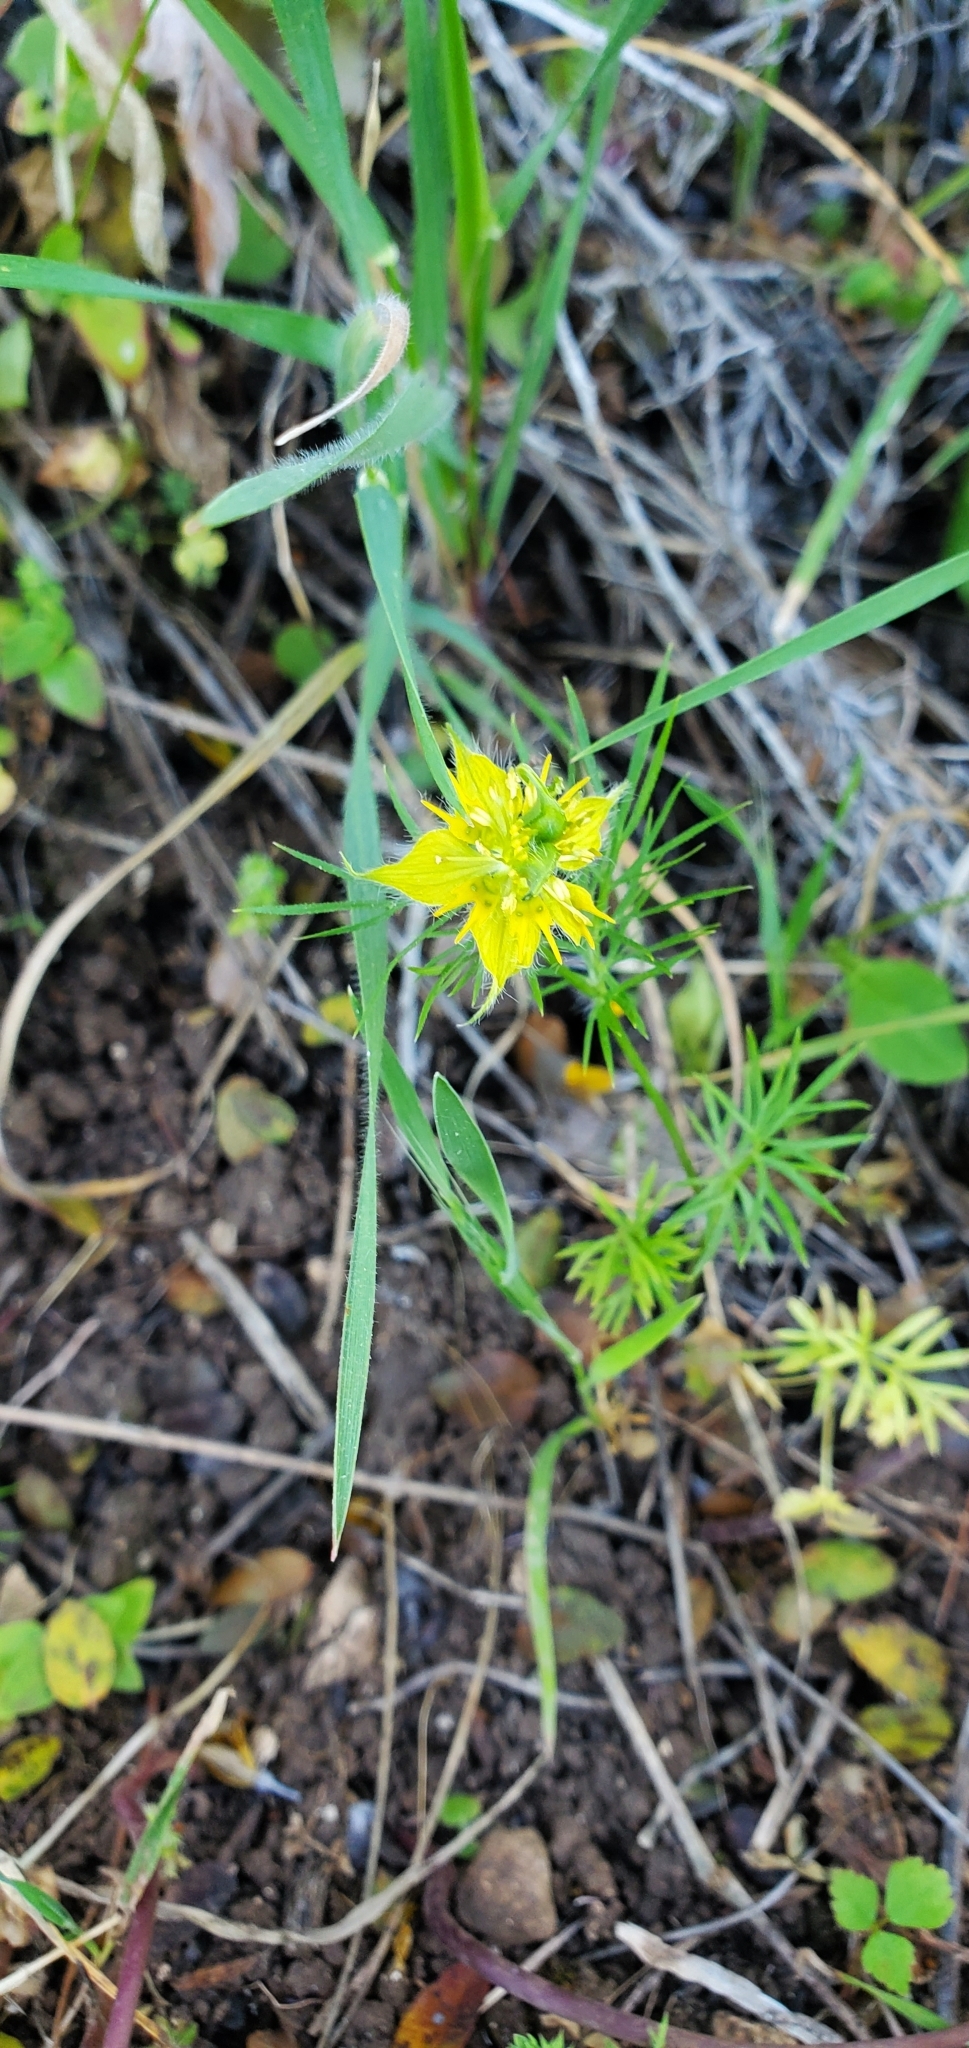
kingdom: Plantae
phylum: Tracheophyta
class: Magnoliopsida
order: Ranunculales
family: Ranunculaceae
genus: Nigella
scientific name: Nigella ciliaris
